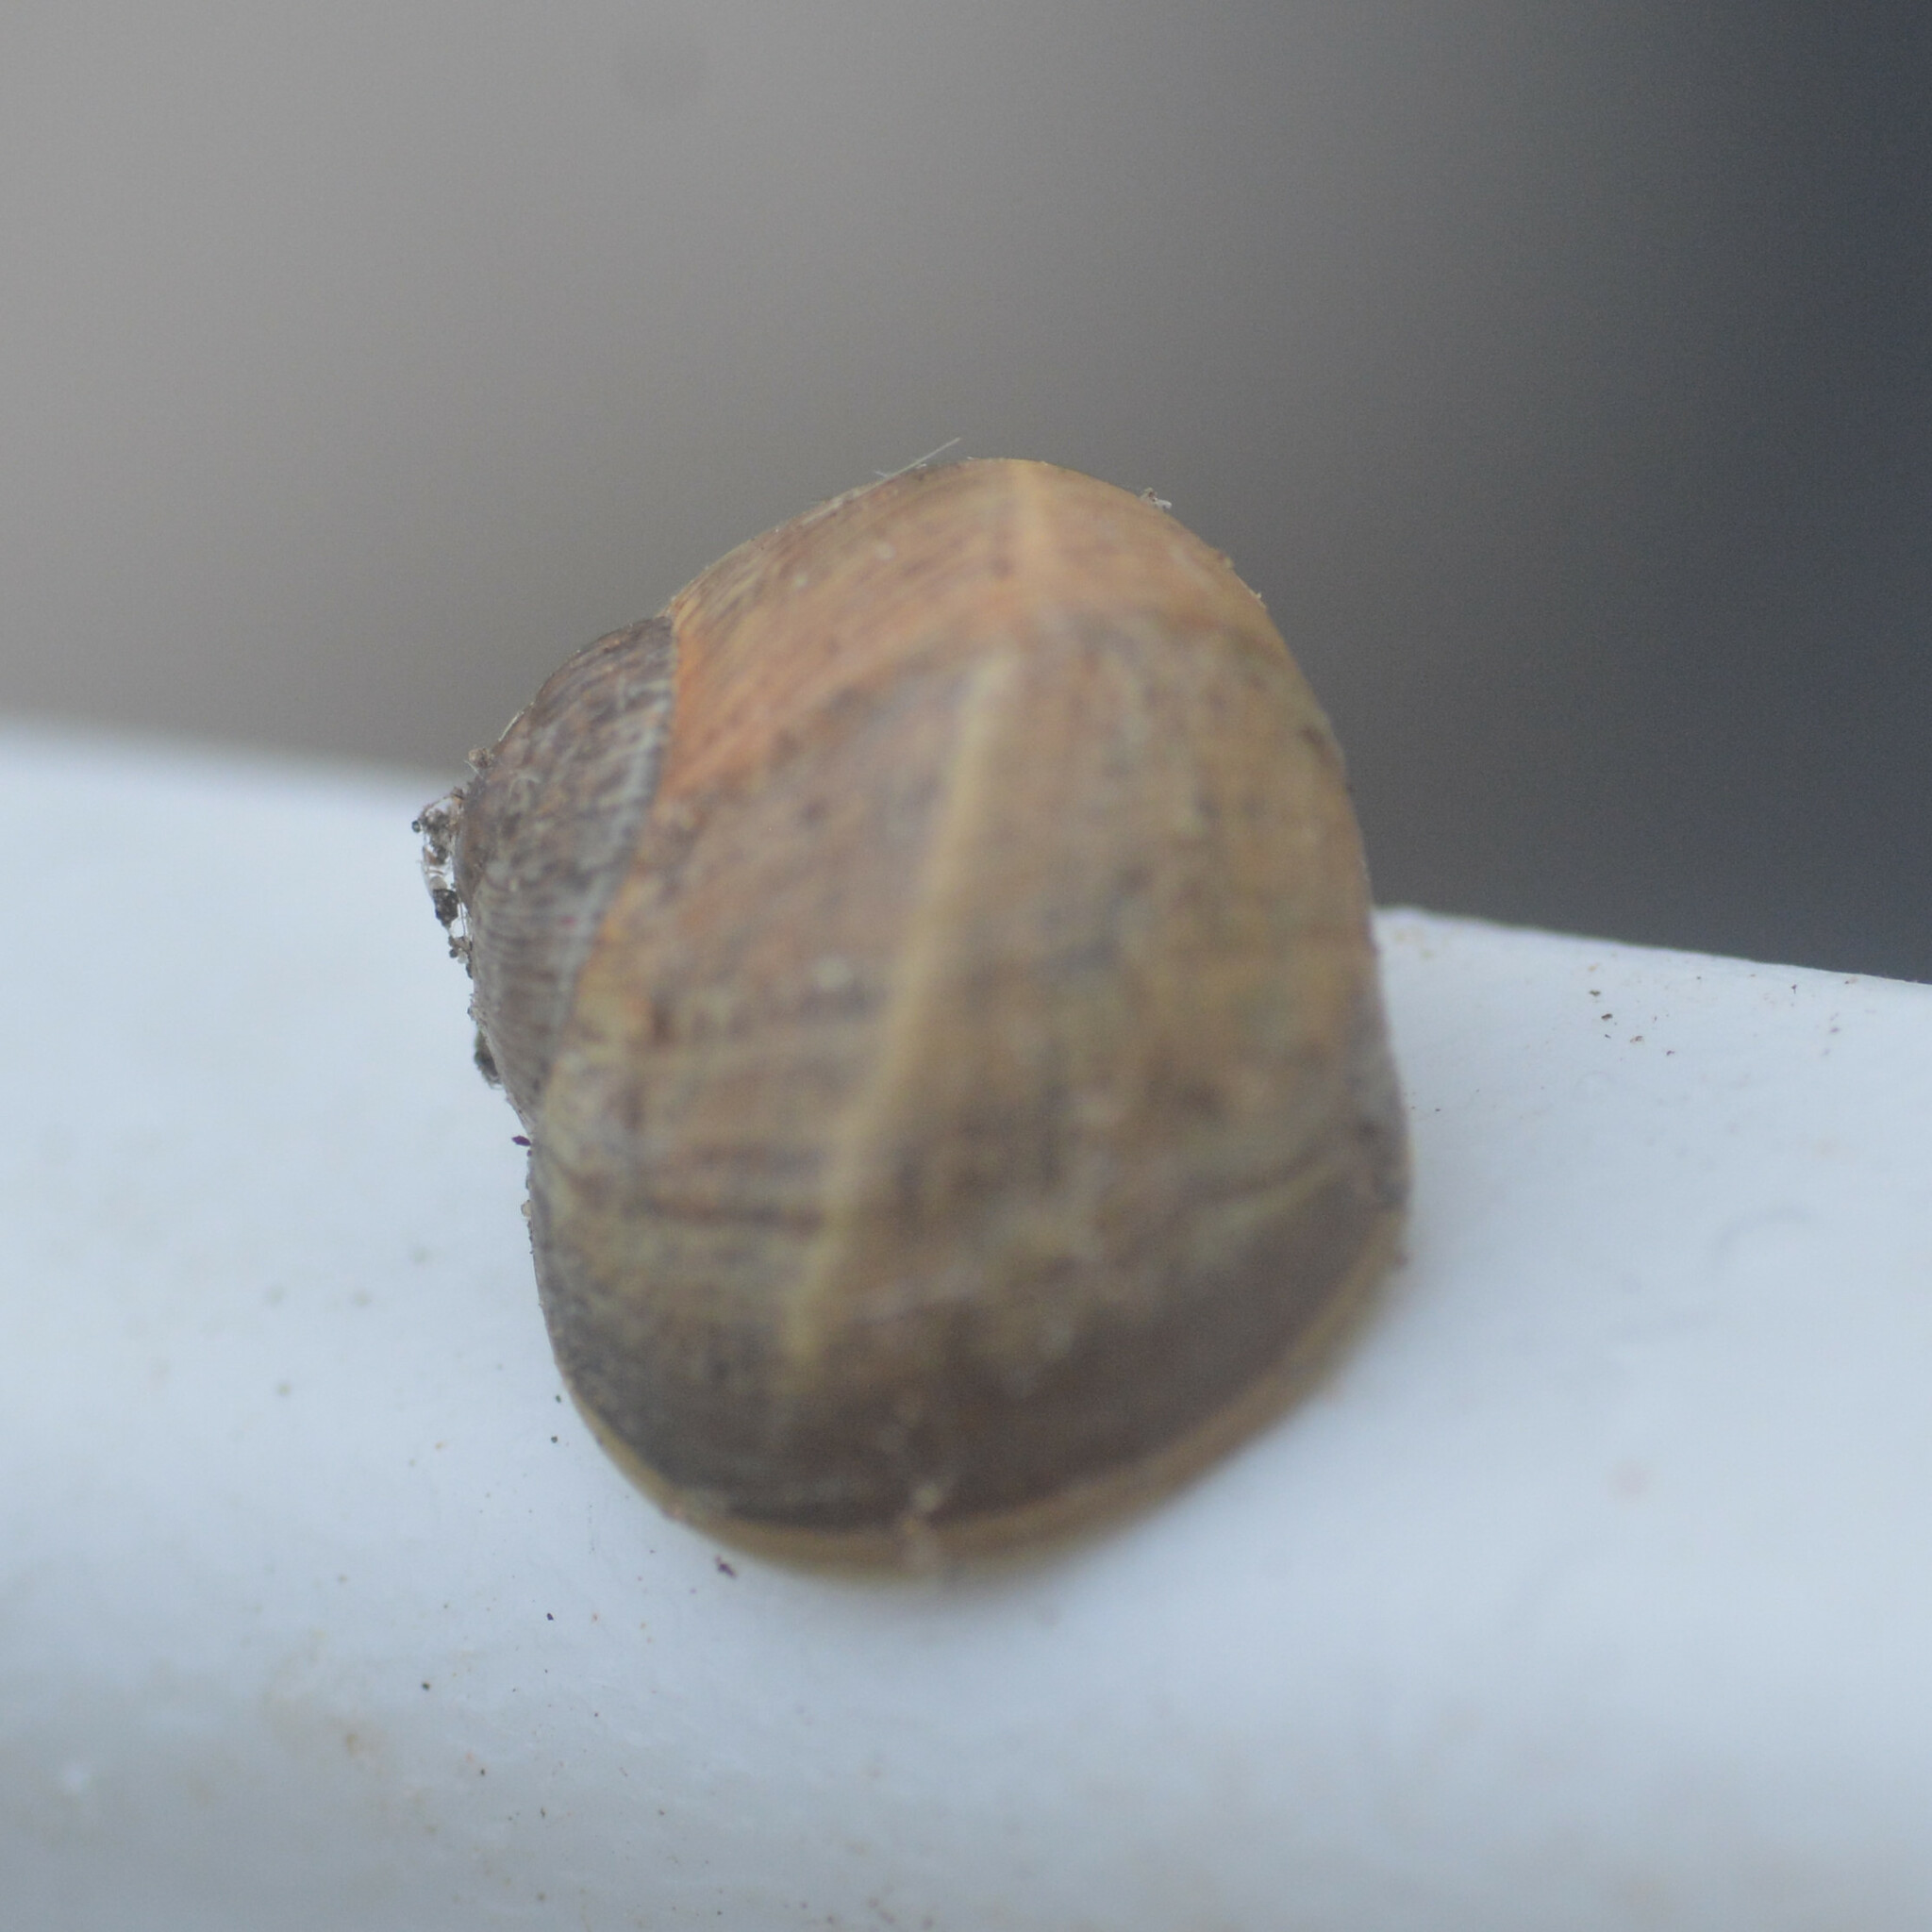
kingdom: Animalia
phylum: Mollusca
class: Gastropoda
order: Stylommatophora
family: Helicidae
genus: Cornu
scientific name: Cornu aspersum
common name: Brown garden snail
